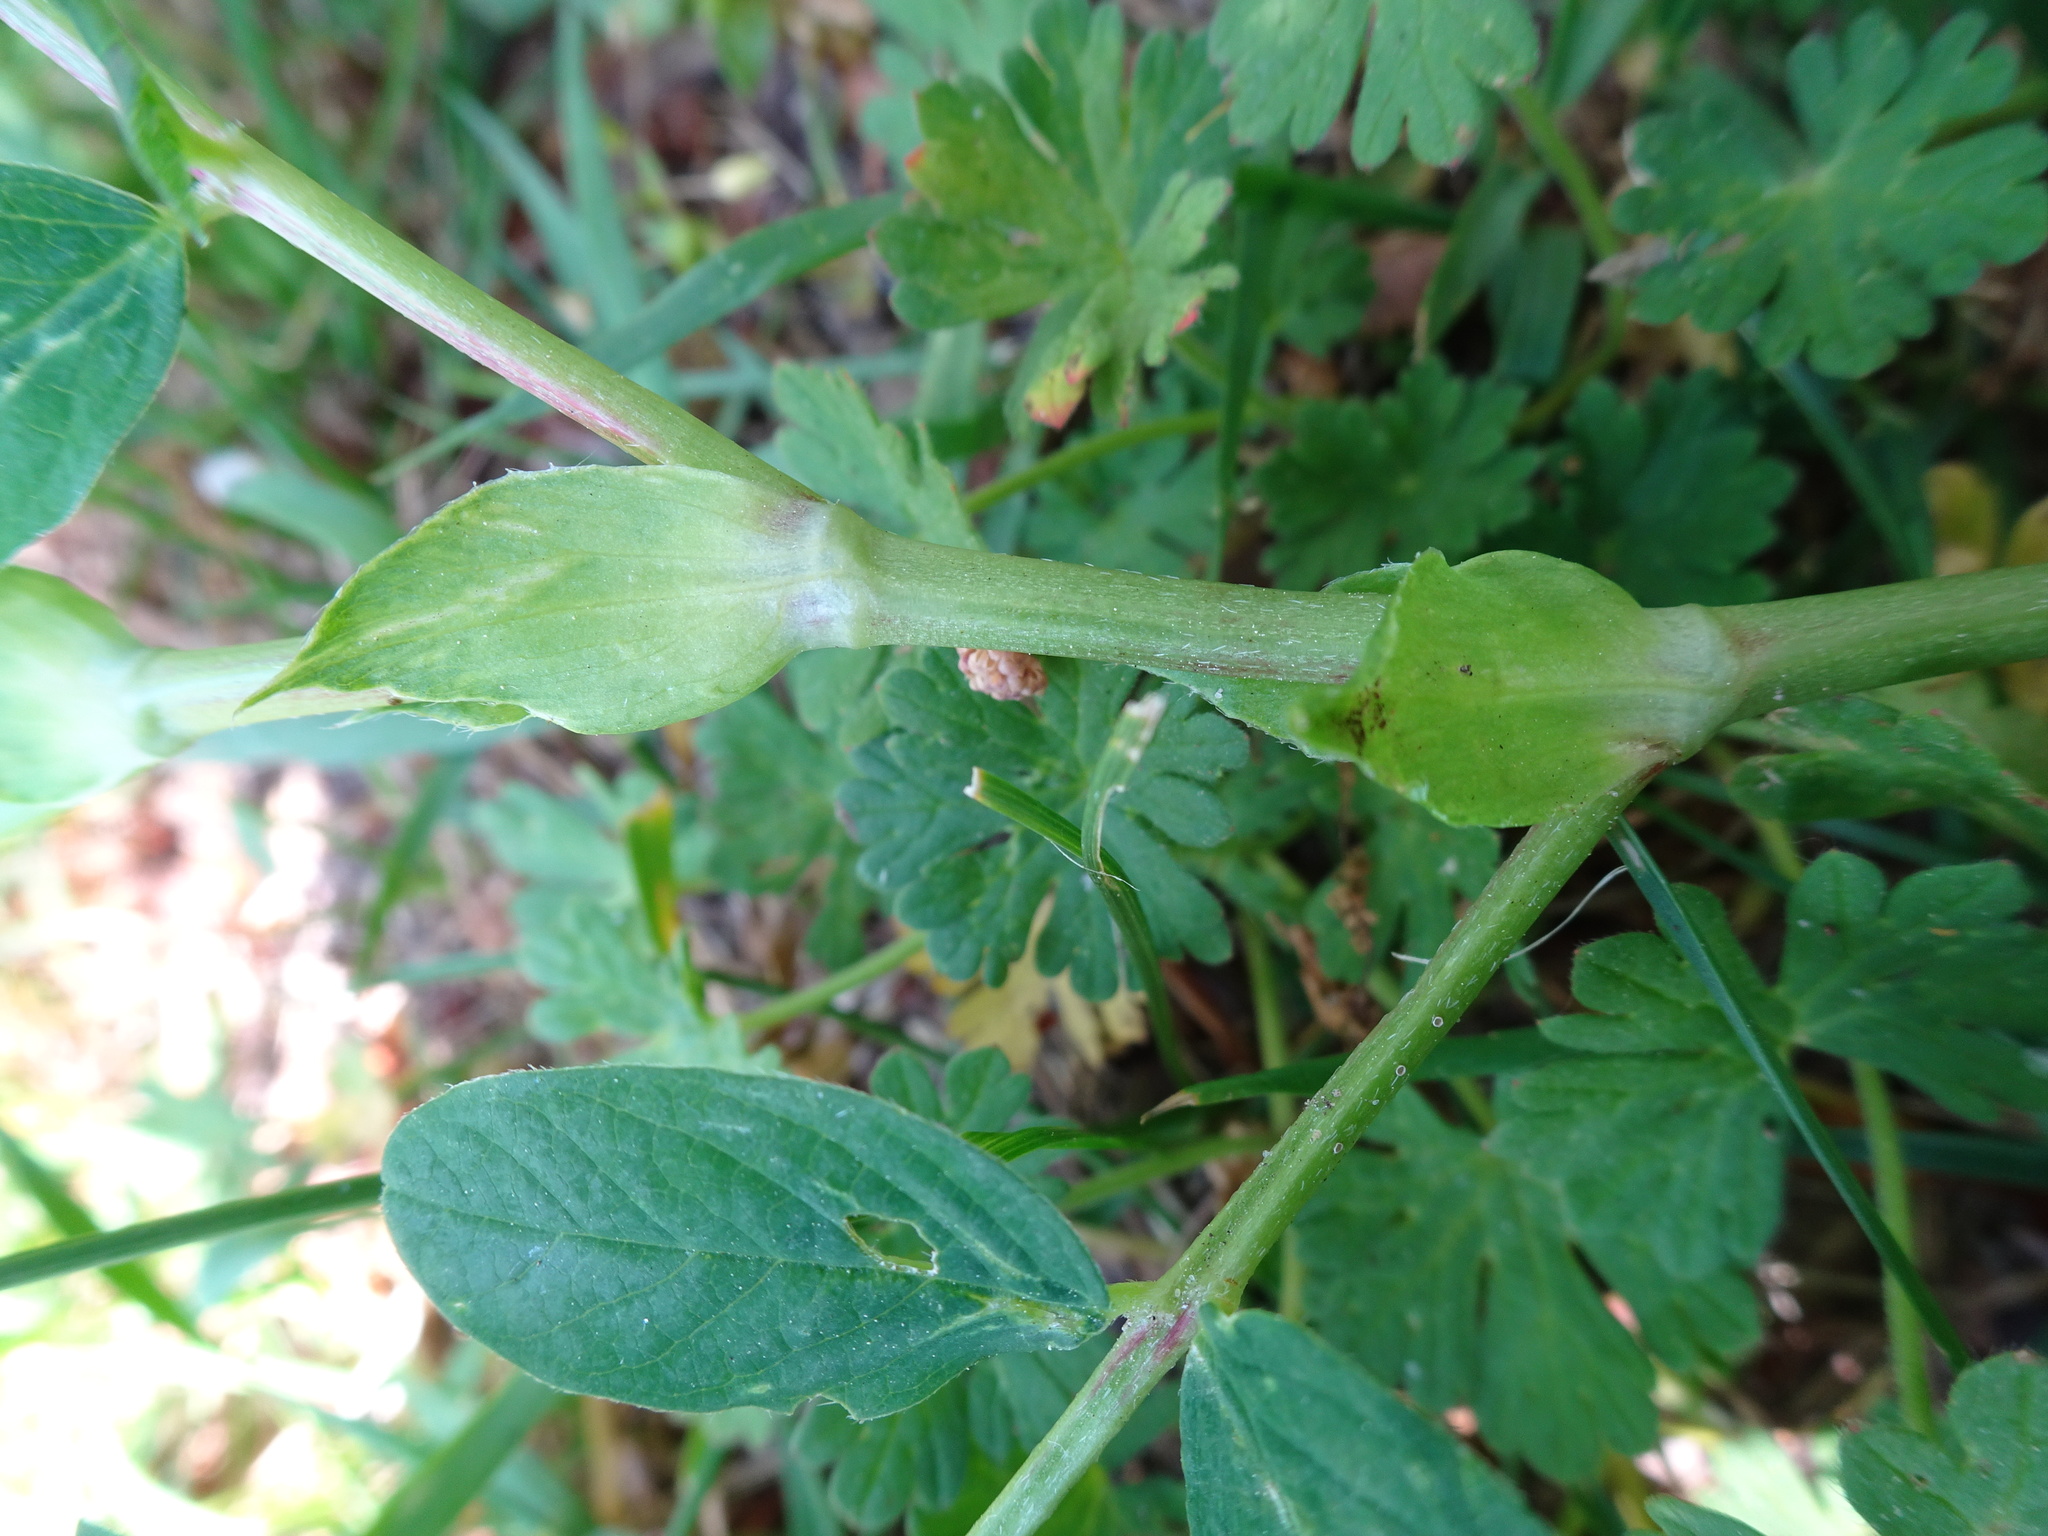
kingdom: Plantae
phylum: Tracheophyta
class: Magnoliopsida
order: Fabales
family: Fabaceae
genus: Astragalus
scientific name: Astragalus glycyphyllos
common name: Wild liquorice
